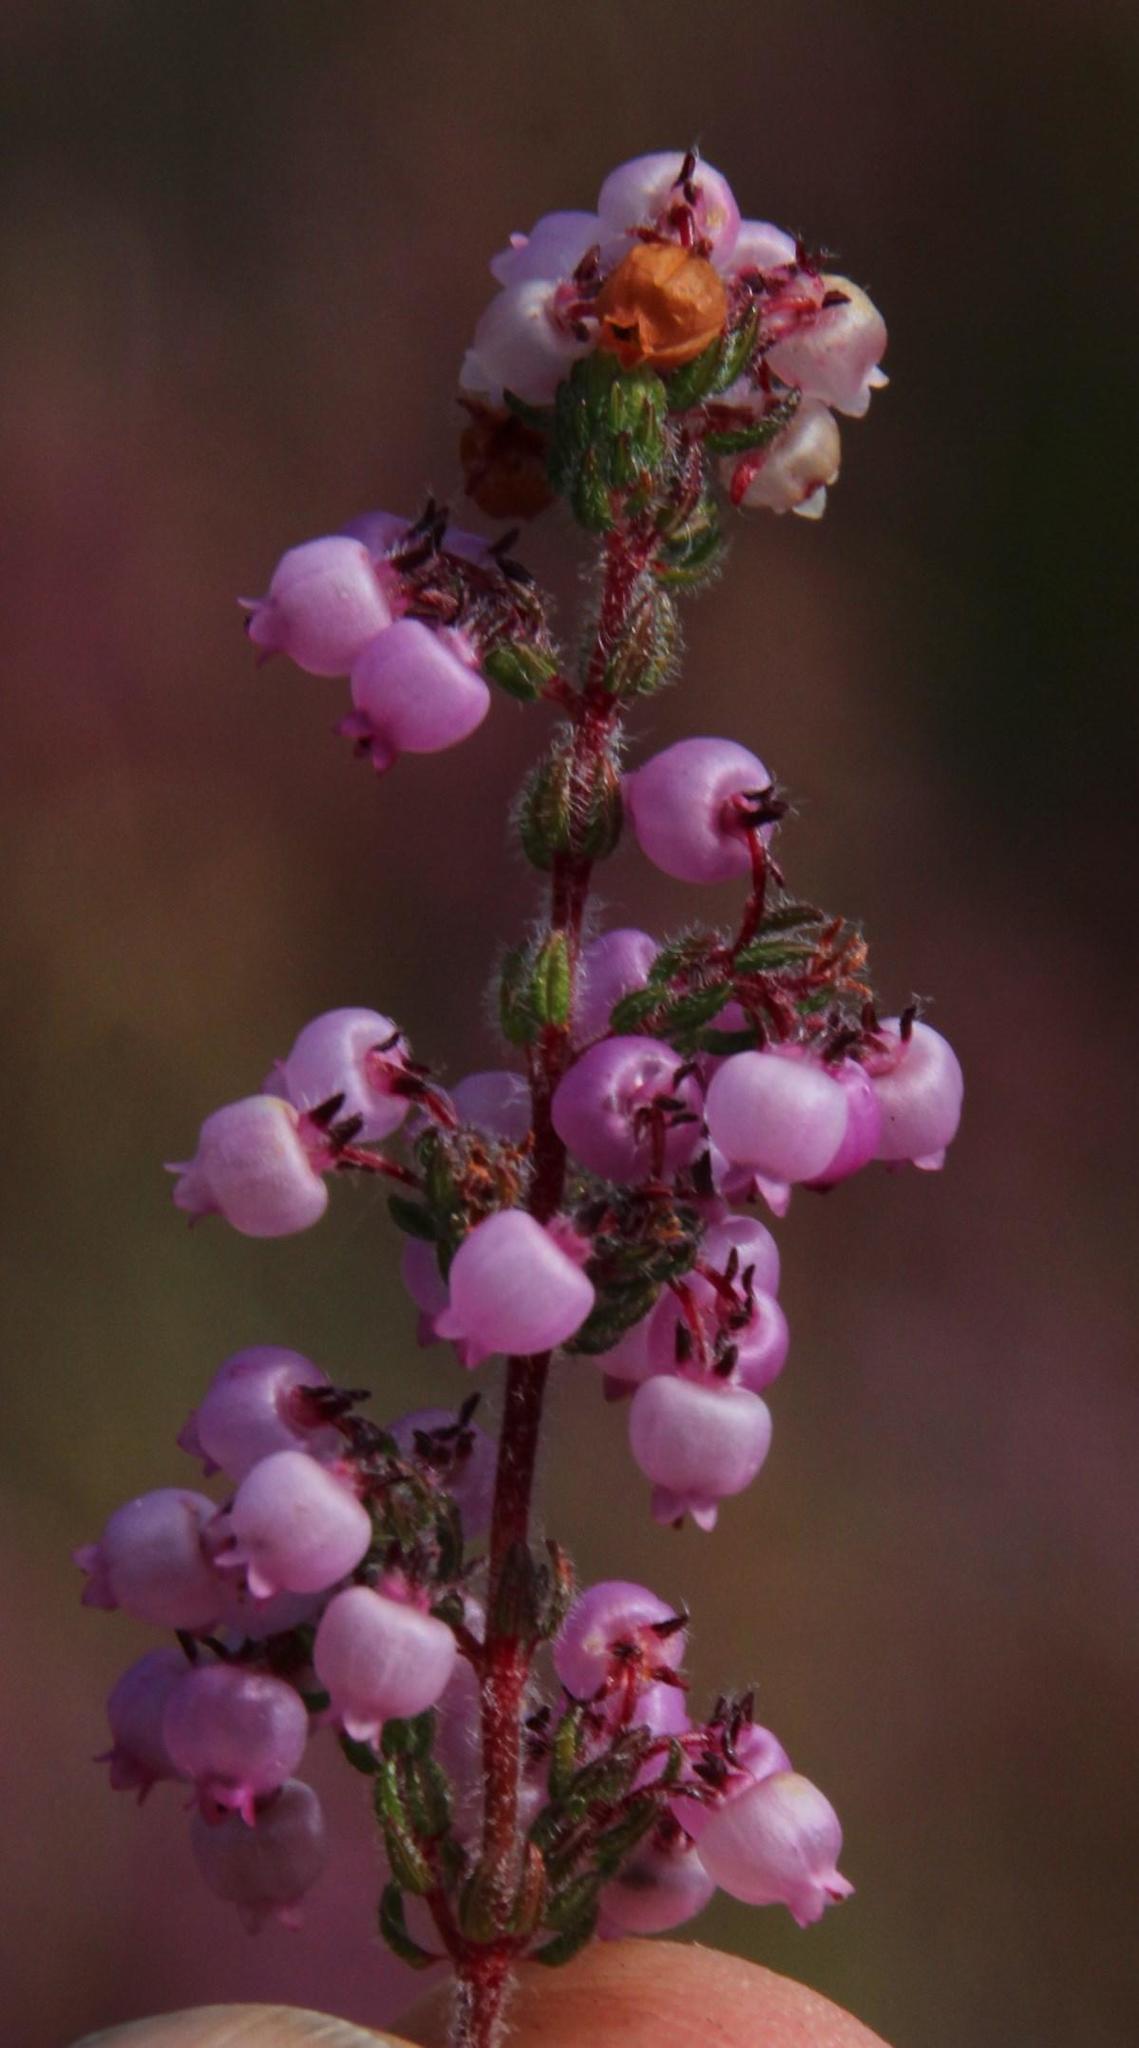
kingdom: Plantae
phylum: Tracheophyta
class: Magnoliopsida
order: Ericales
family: Ericaceae
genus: Erica
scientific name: Erica bergiana
